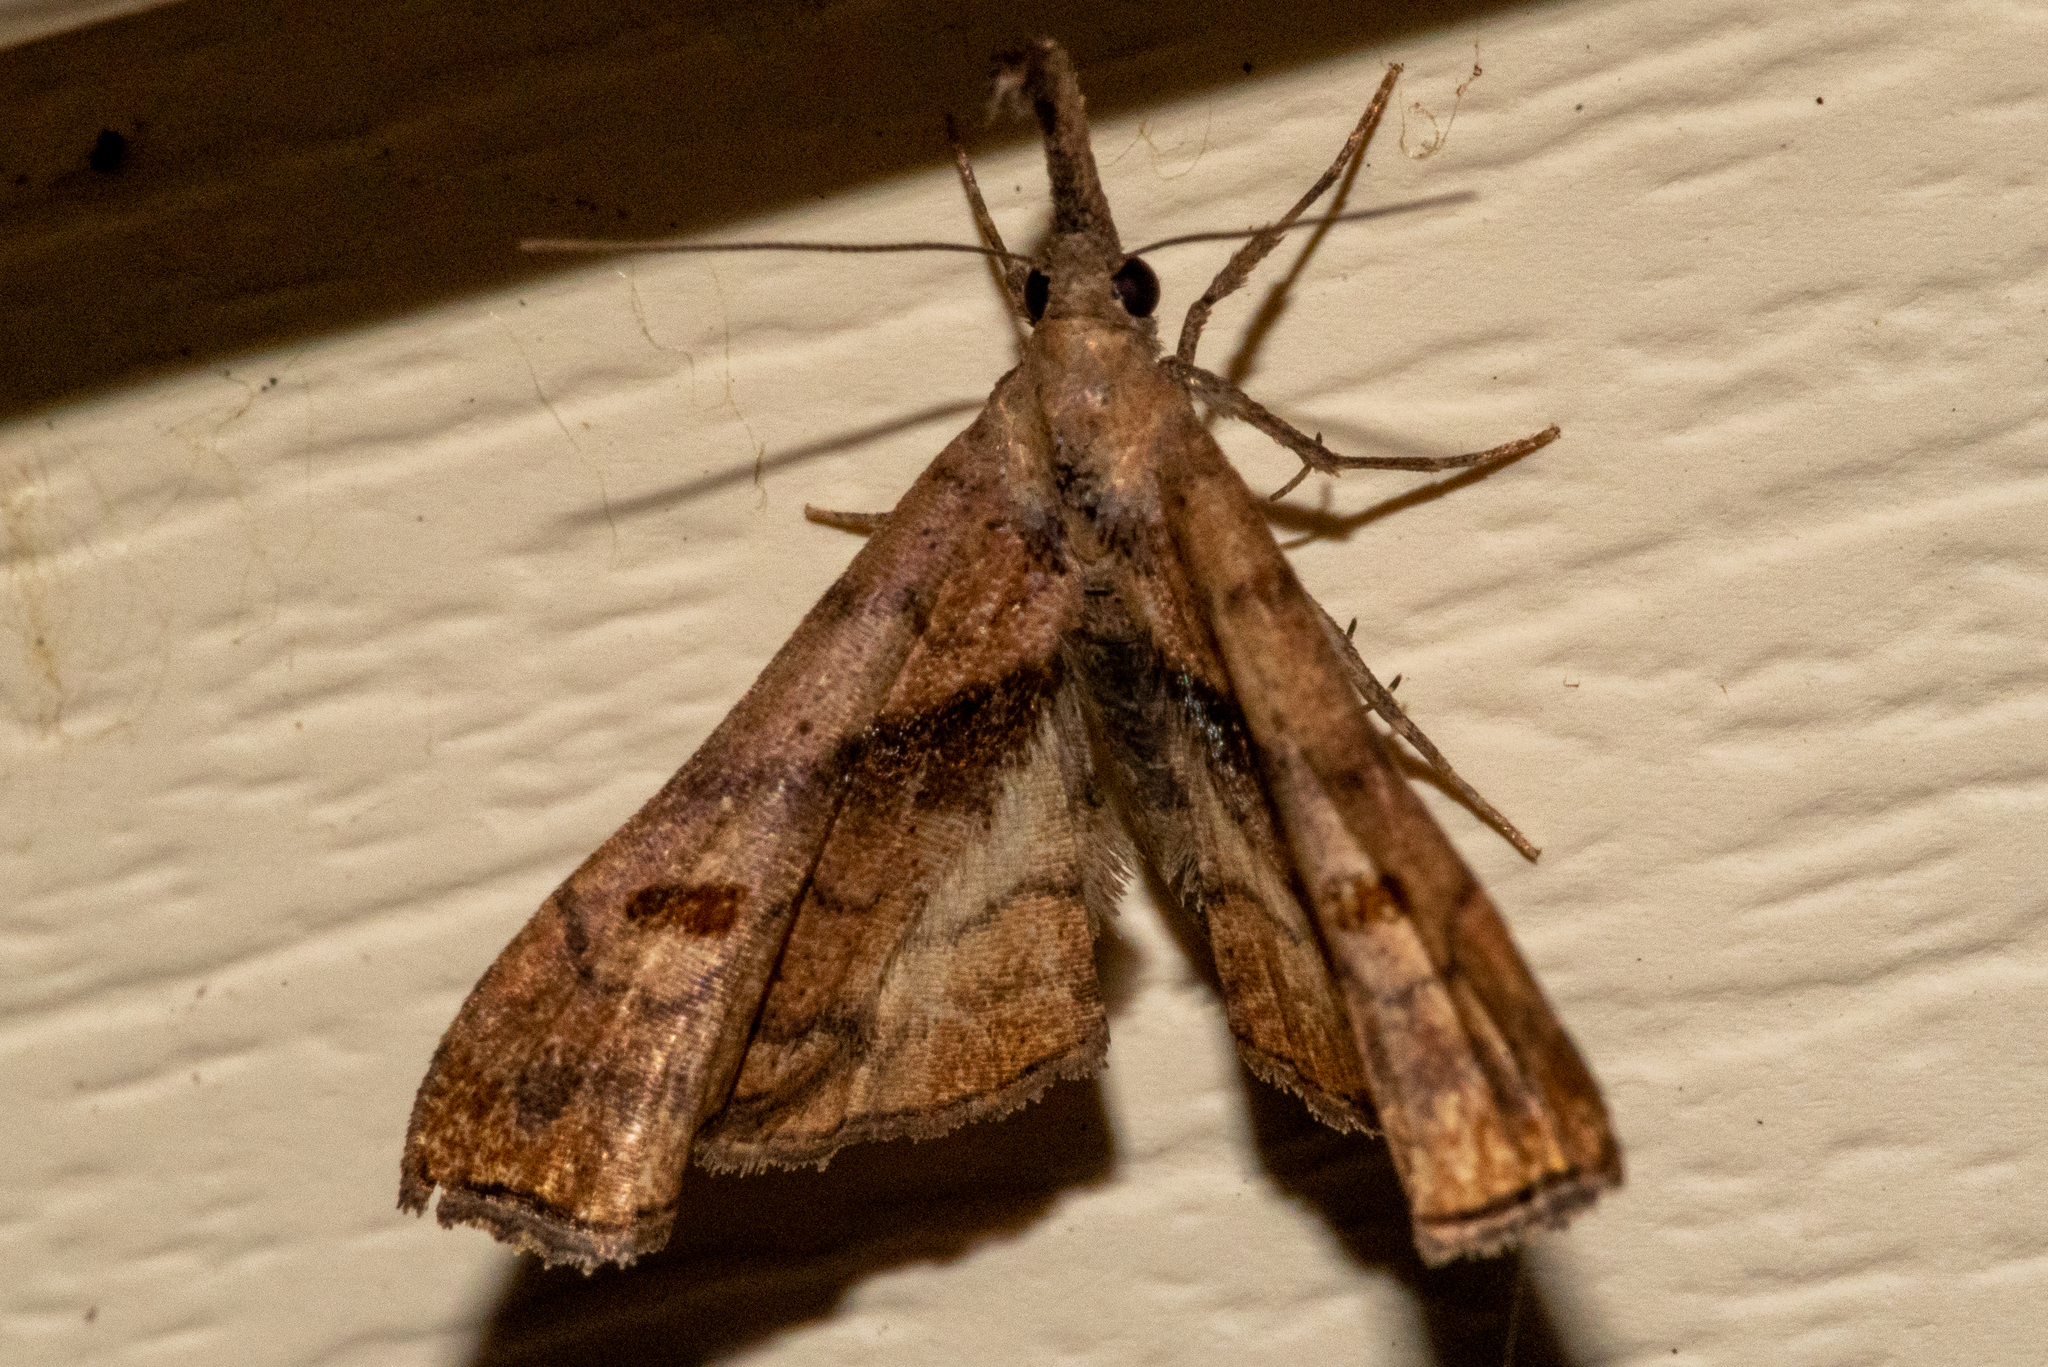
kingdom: Animalia
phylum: Arthropoda
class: Insecta
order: Lepidoptera
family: Erebidae
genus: Palthis
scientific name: Palthis angulalis
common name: Dark-spotted palthis moth
